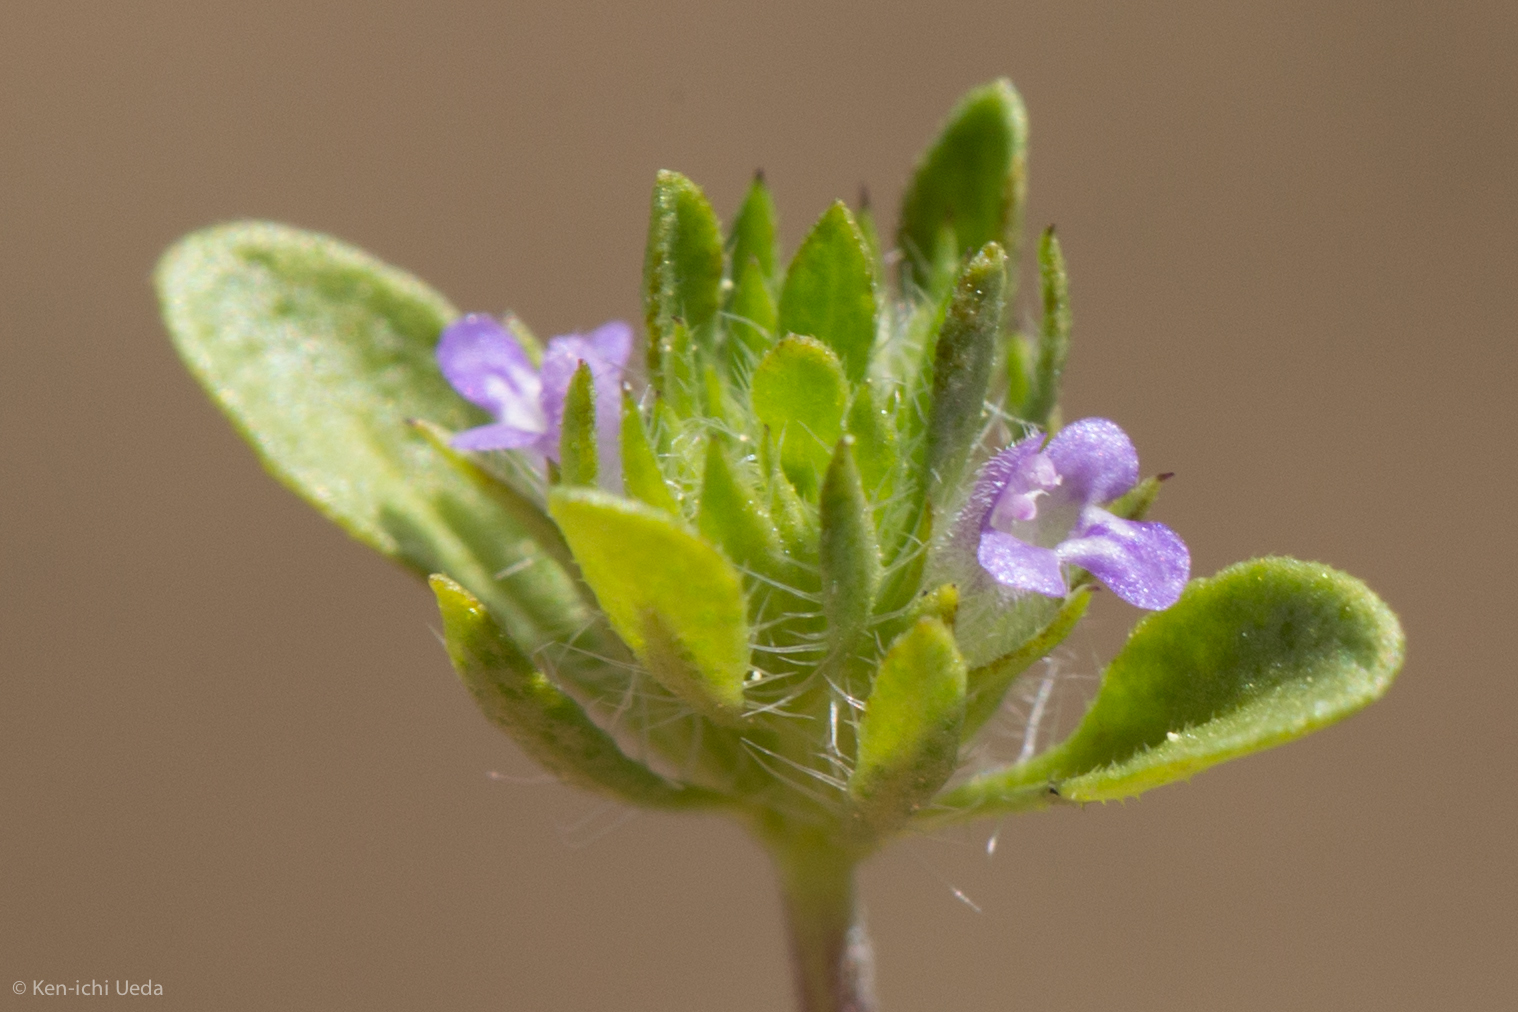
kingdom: Plantae
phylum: Tracheophyta
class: Magnoliopsida
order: Lamiales
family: Lamiaceae
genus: Pogogyne
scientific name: Pogogyne serpylloides
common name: Thymeleaf mesamint
